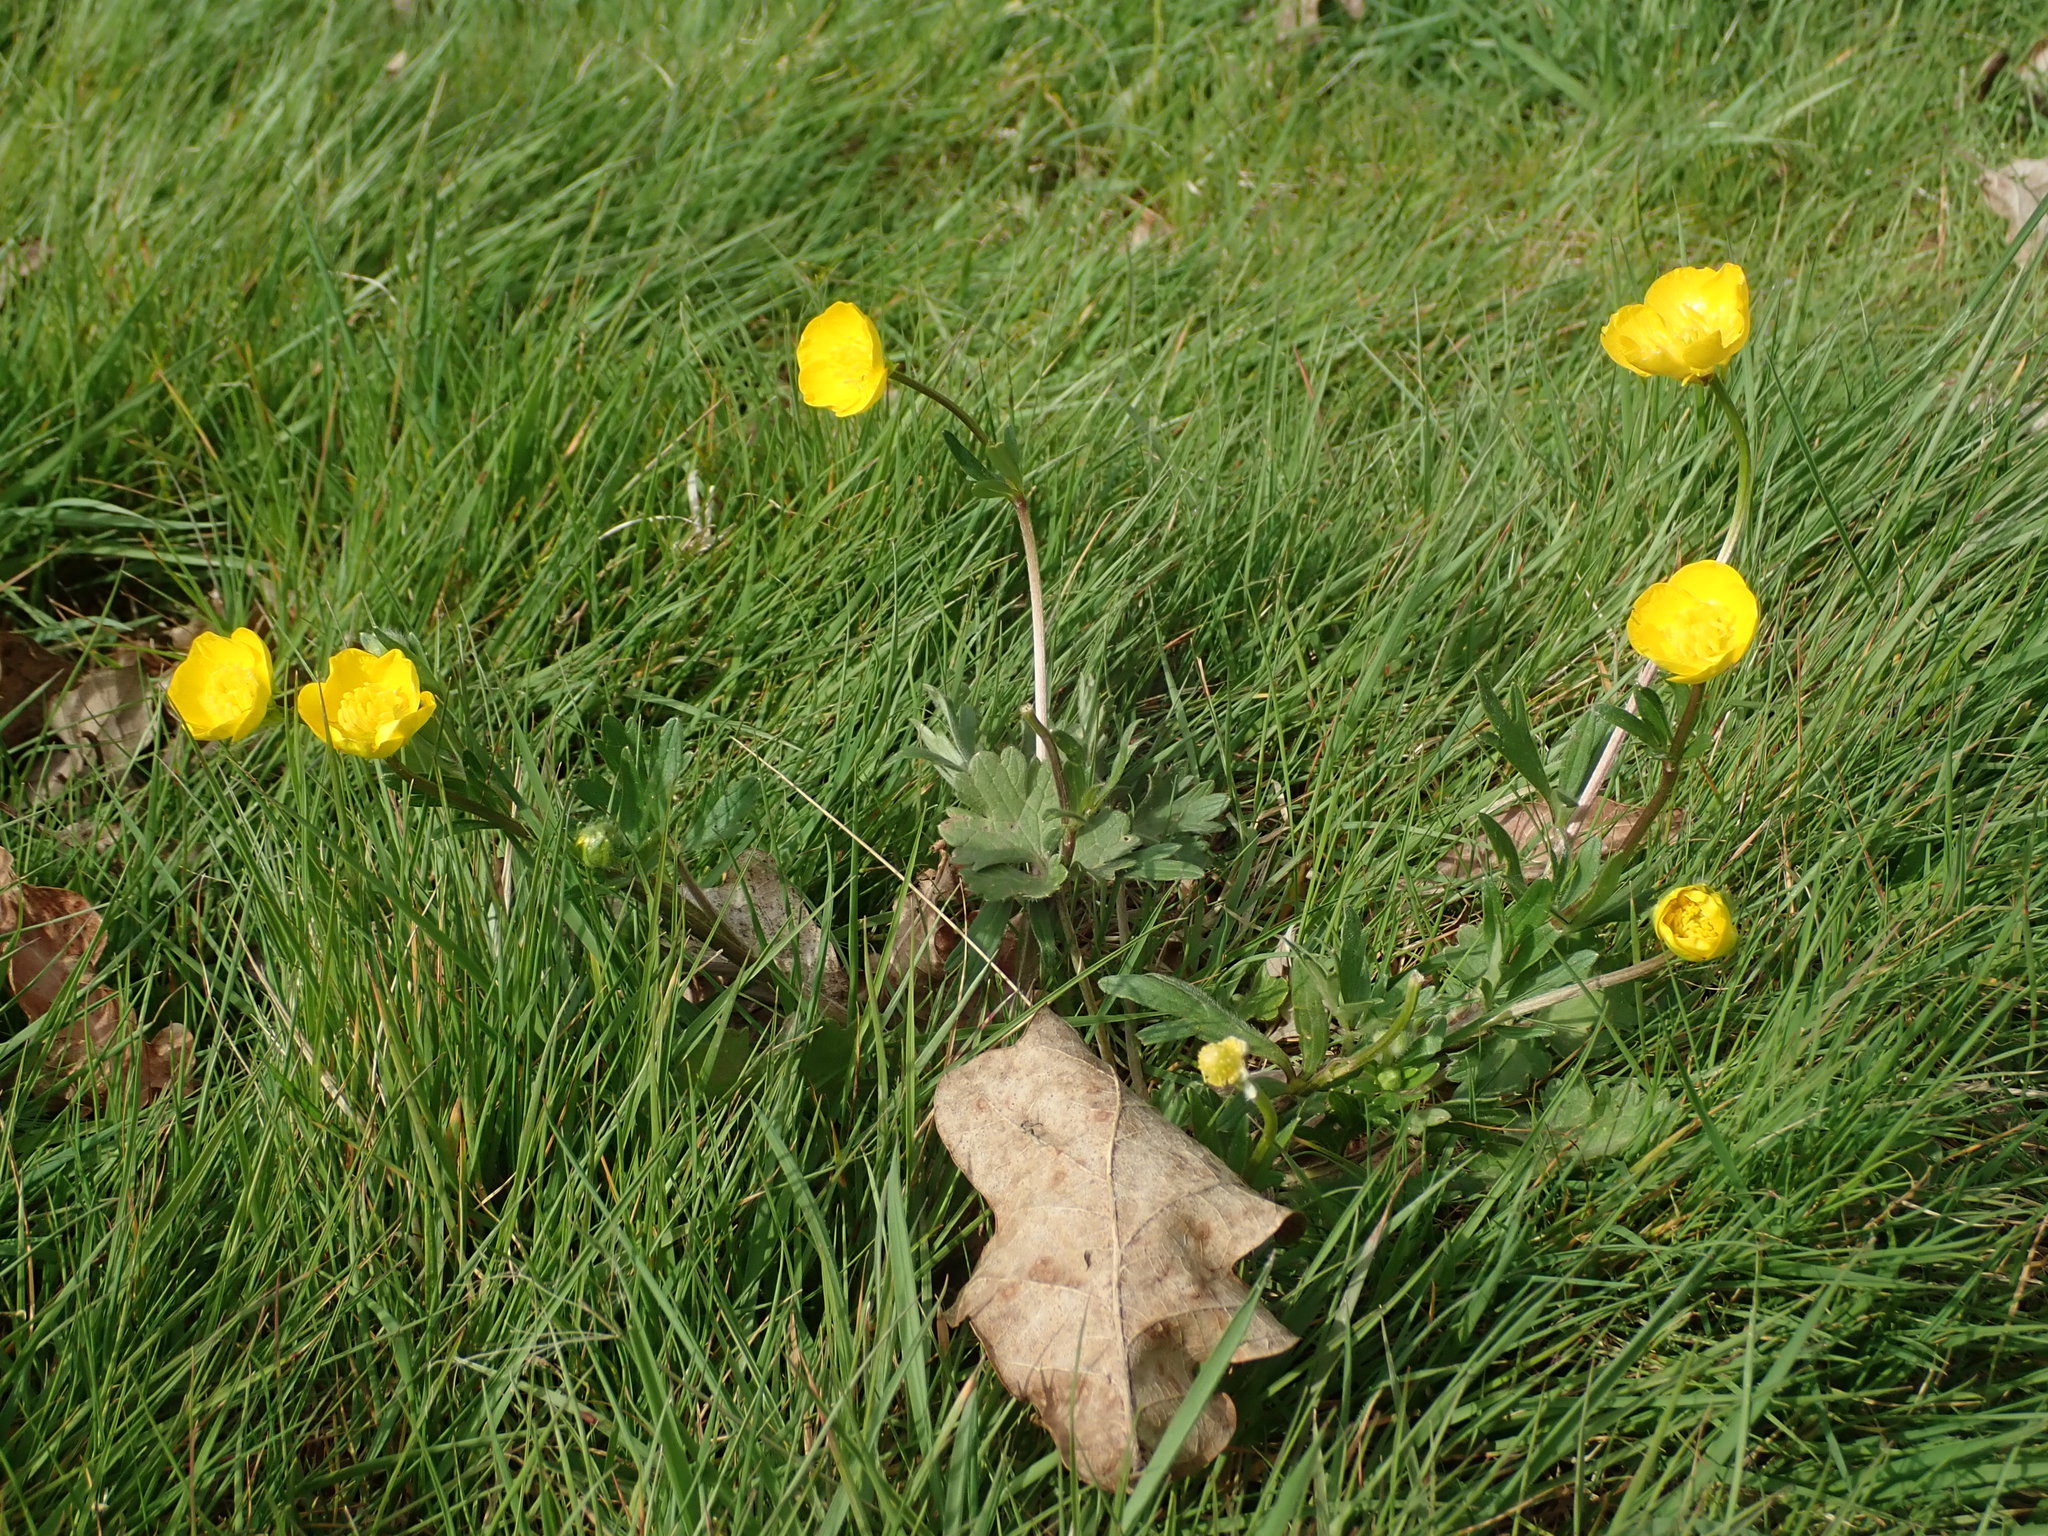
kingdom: Plantae
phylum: Tracheophyta
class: Magnoliopsida
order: Ranunculales
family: Ranunculaceae
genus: Ranunculus
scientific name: Ranunculus bulbosus
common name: Bulbous buttercup
